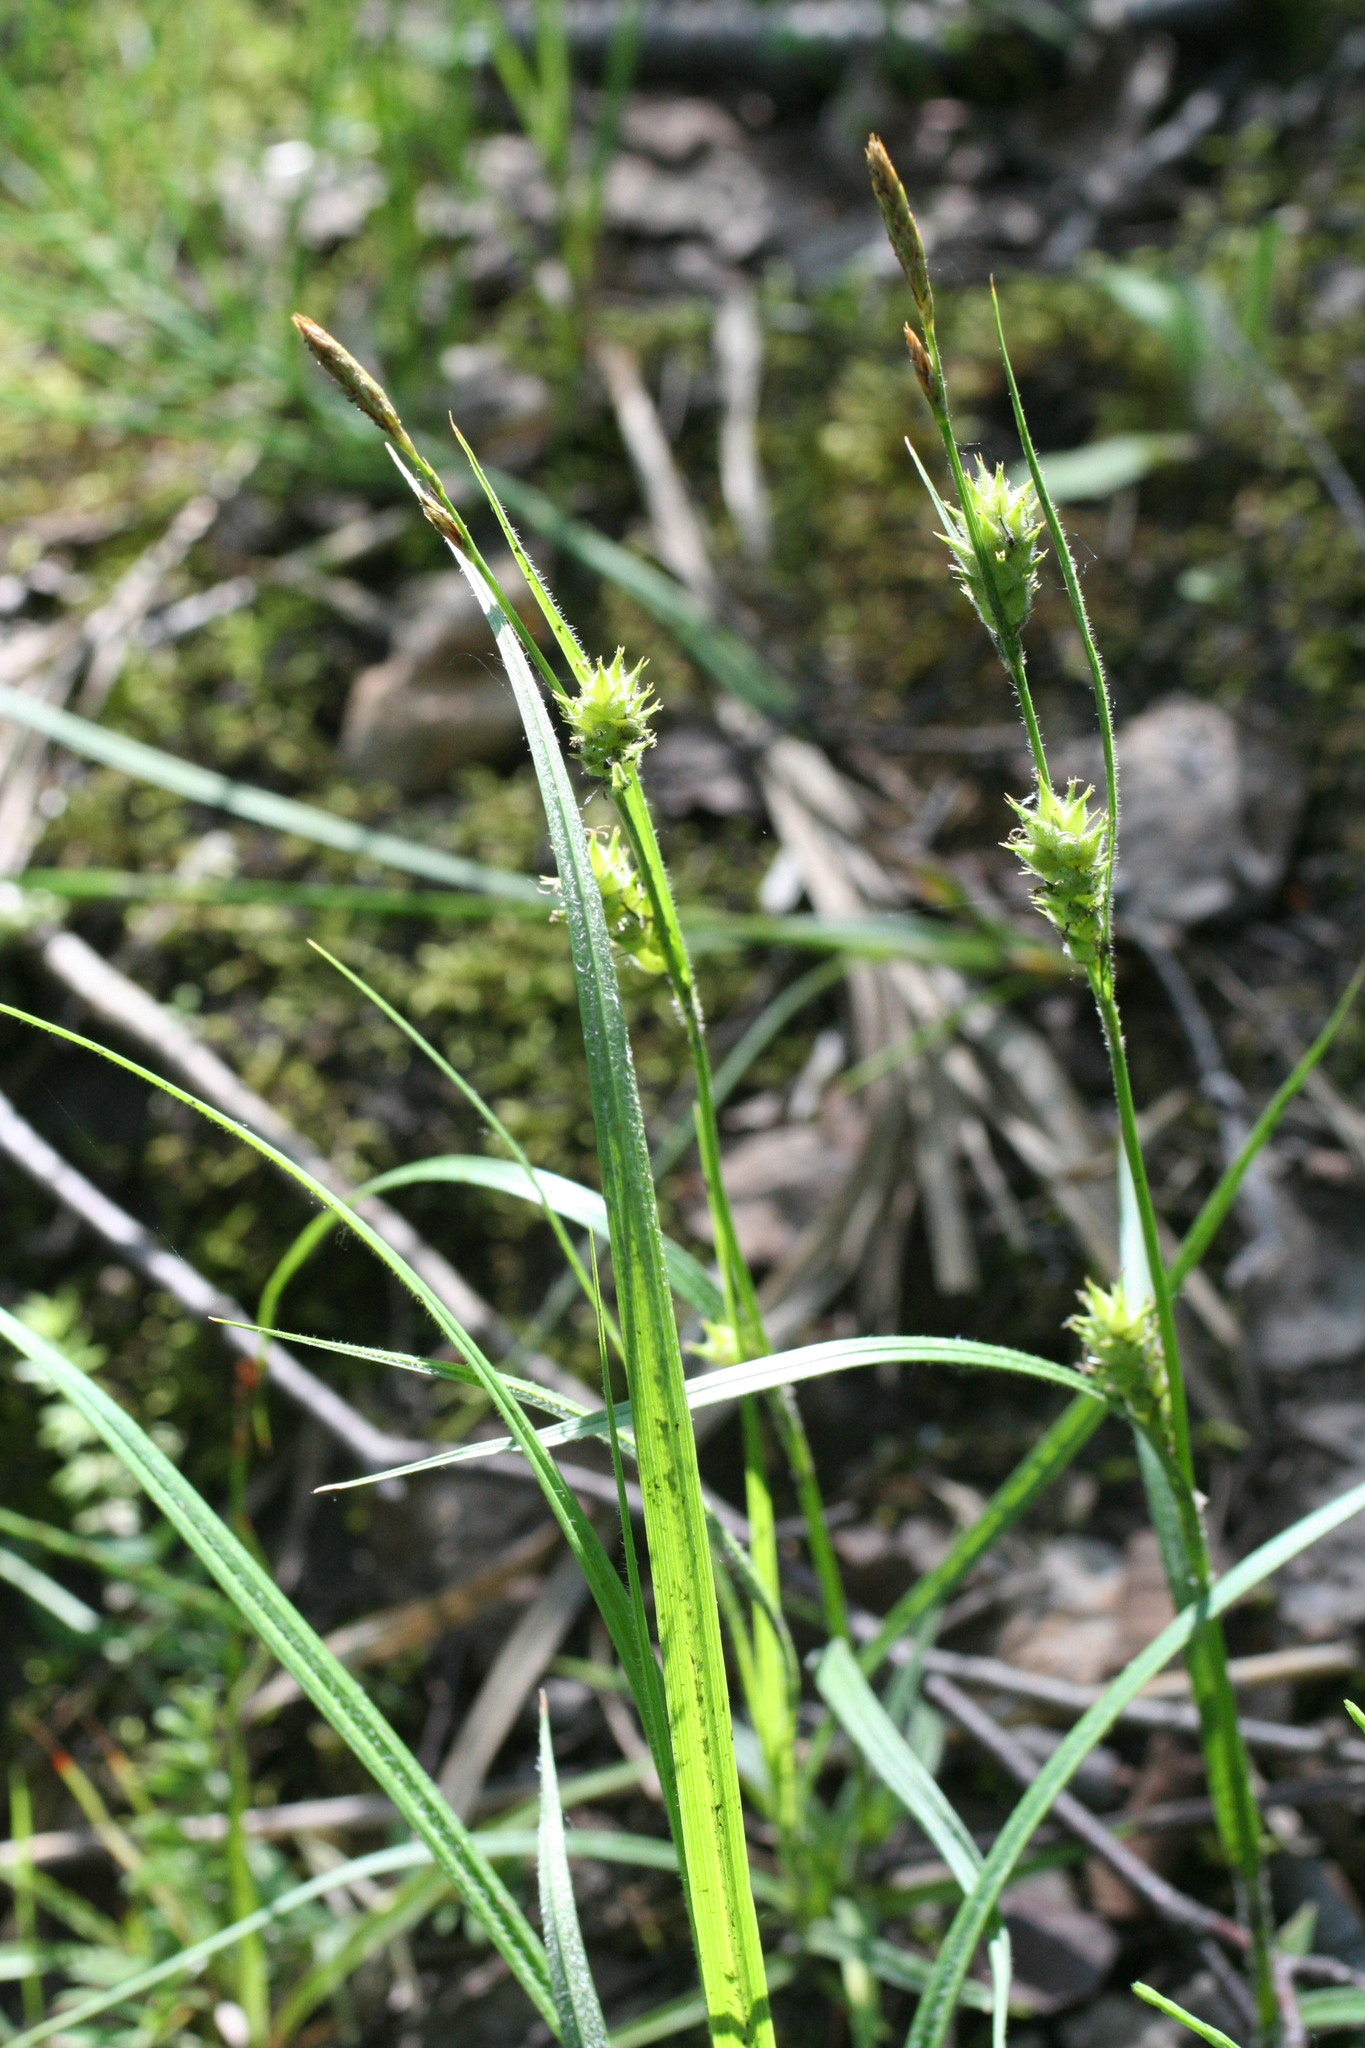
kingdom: Plantae
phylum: Tracheophyta
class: Liliopsida
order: Poales
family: Cyperaceae
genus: Carex
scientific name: Carex hirta
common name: Hairy sedge
